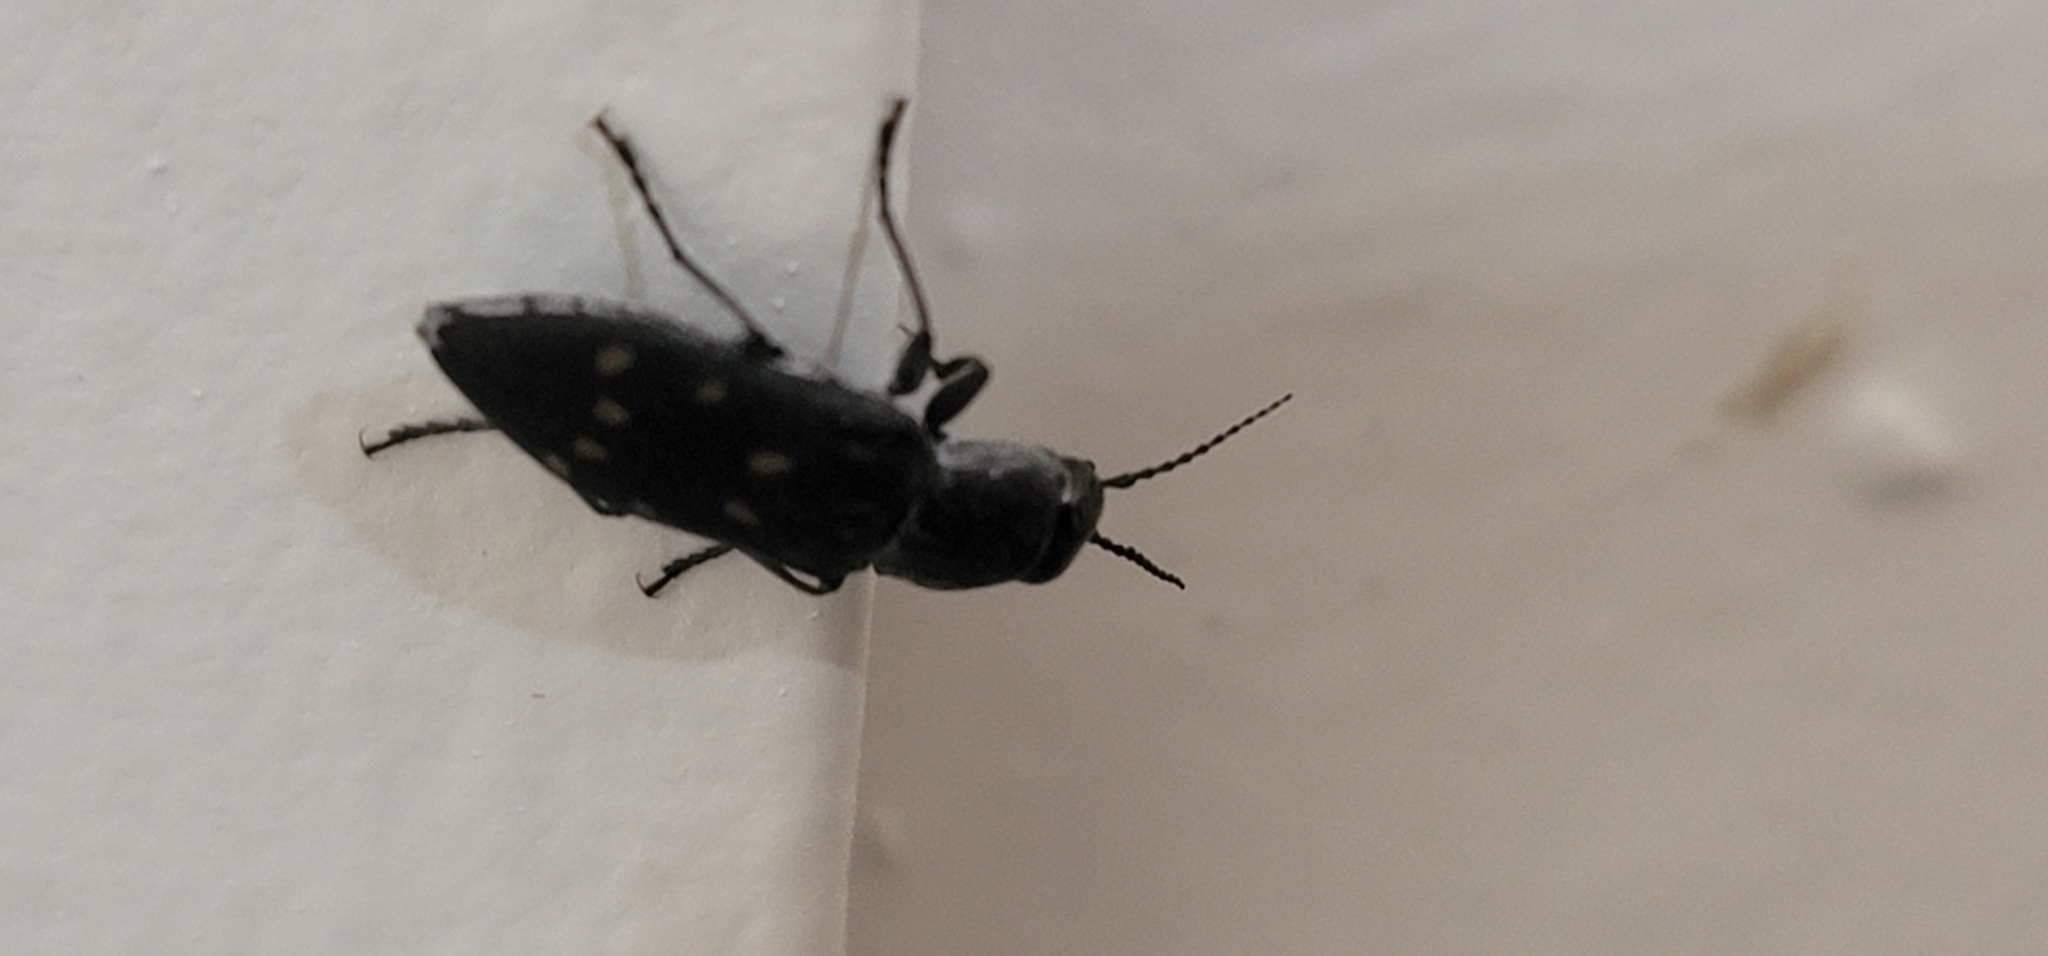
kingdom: Animalia
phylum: Arthropoda
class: Insecta
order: Coleoptera
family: Buprestidae
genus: Melanophila
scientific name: Melanophila consputa
